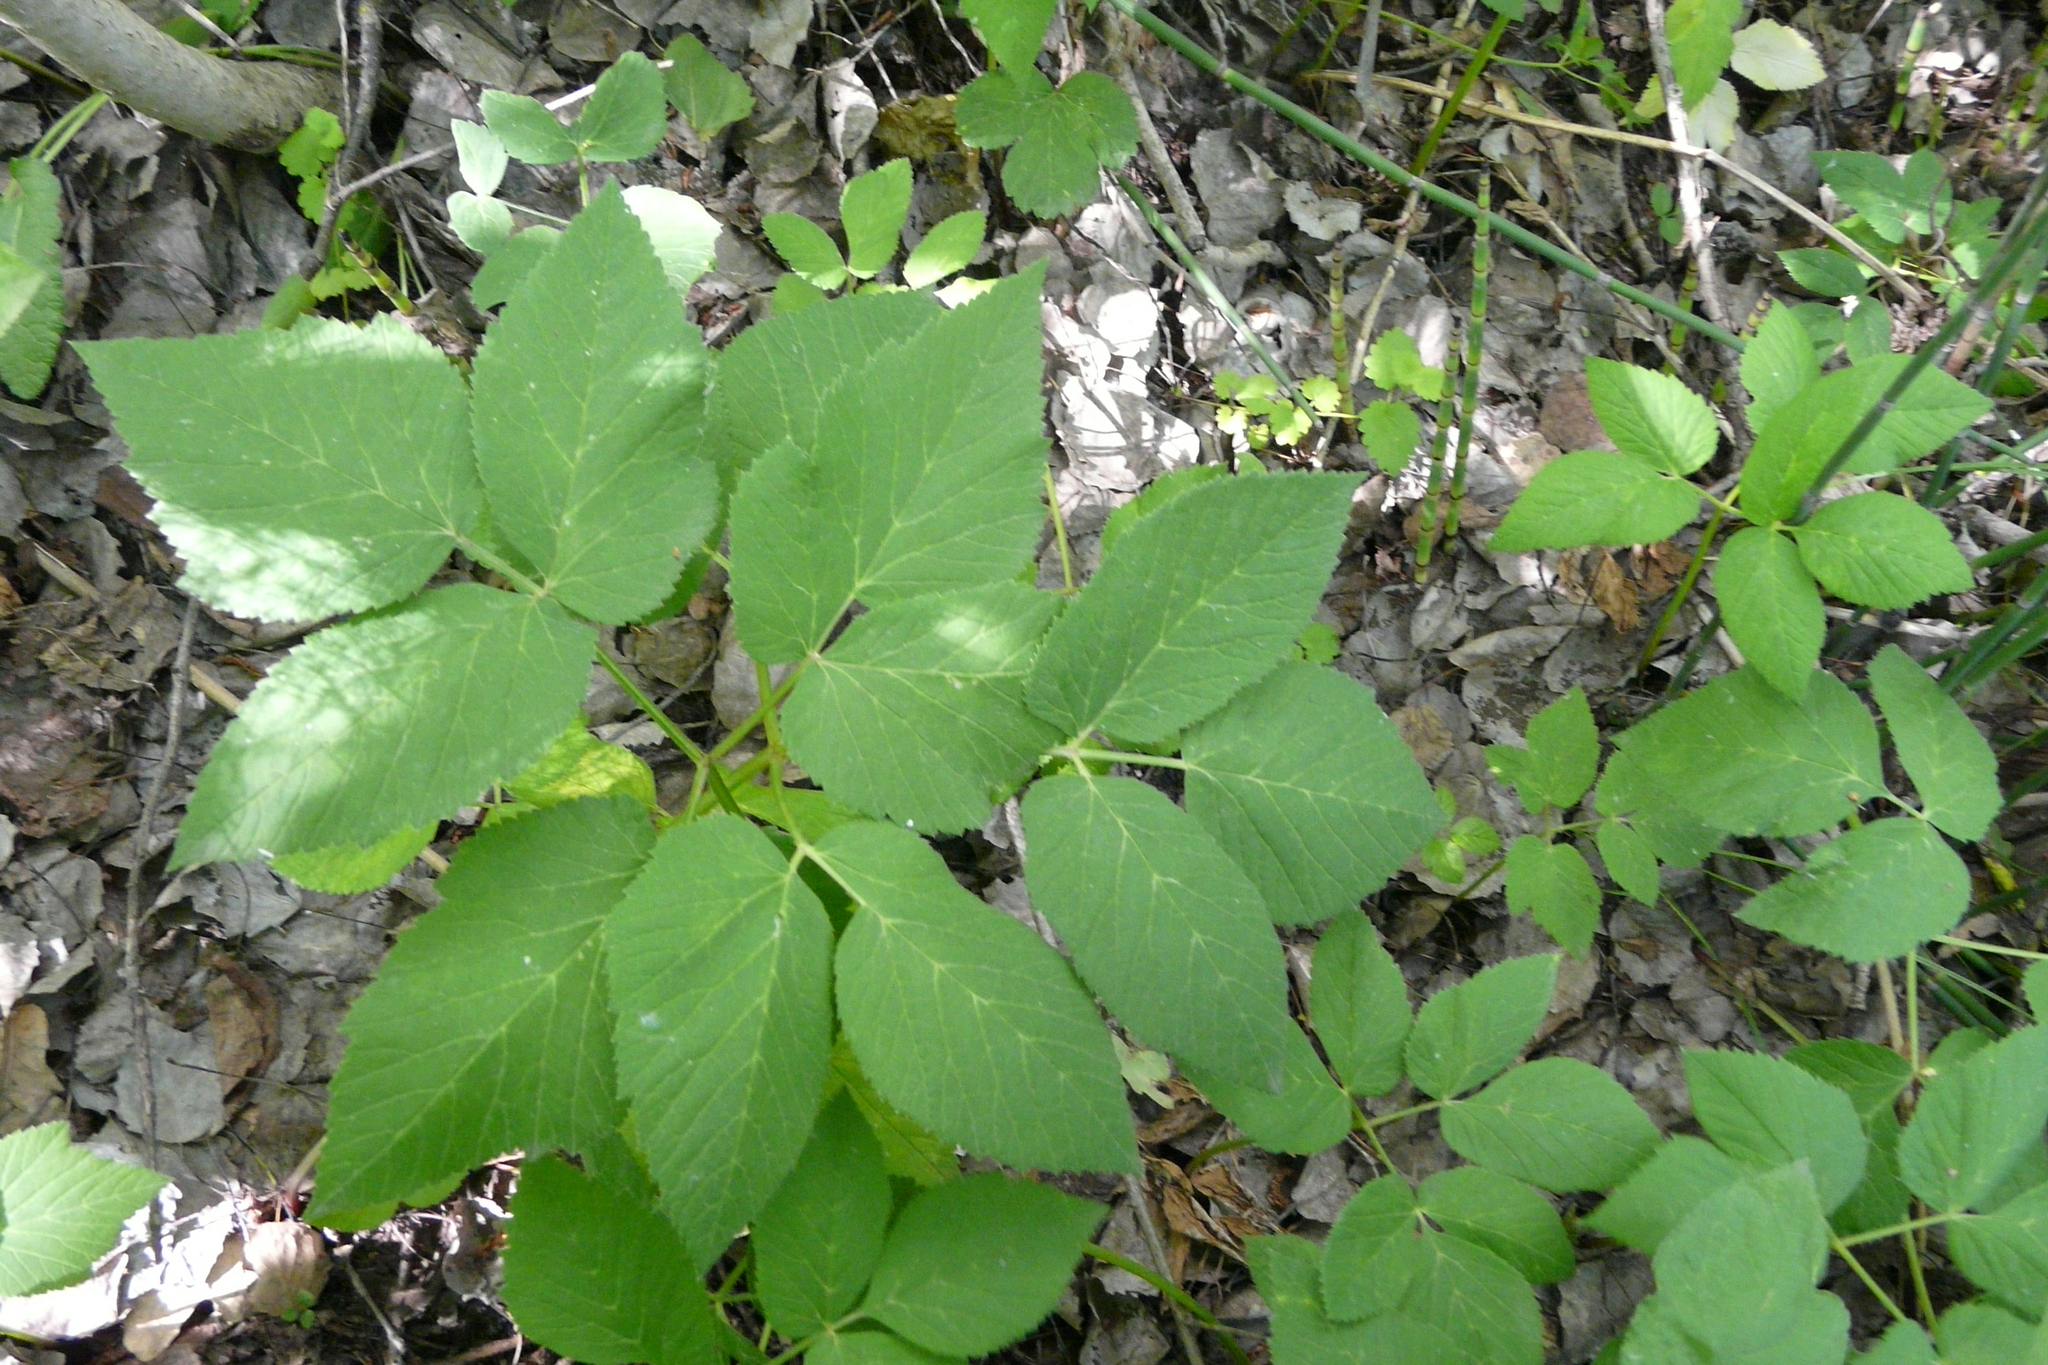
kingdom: Plantae
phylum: Tracheophyta
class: Magnoliopsida
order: Apiales
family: Apiaceae
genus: Aegopodium
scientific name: Aegopodium podagraria
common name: Ground-elder
